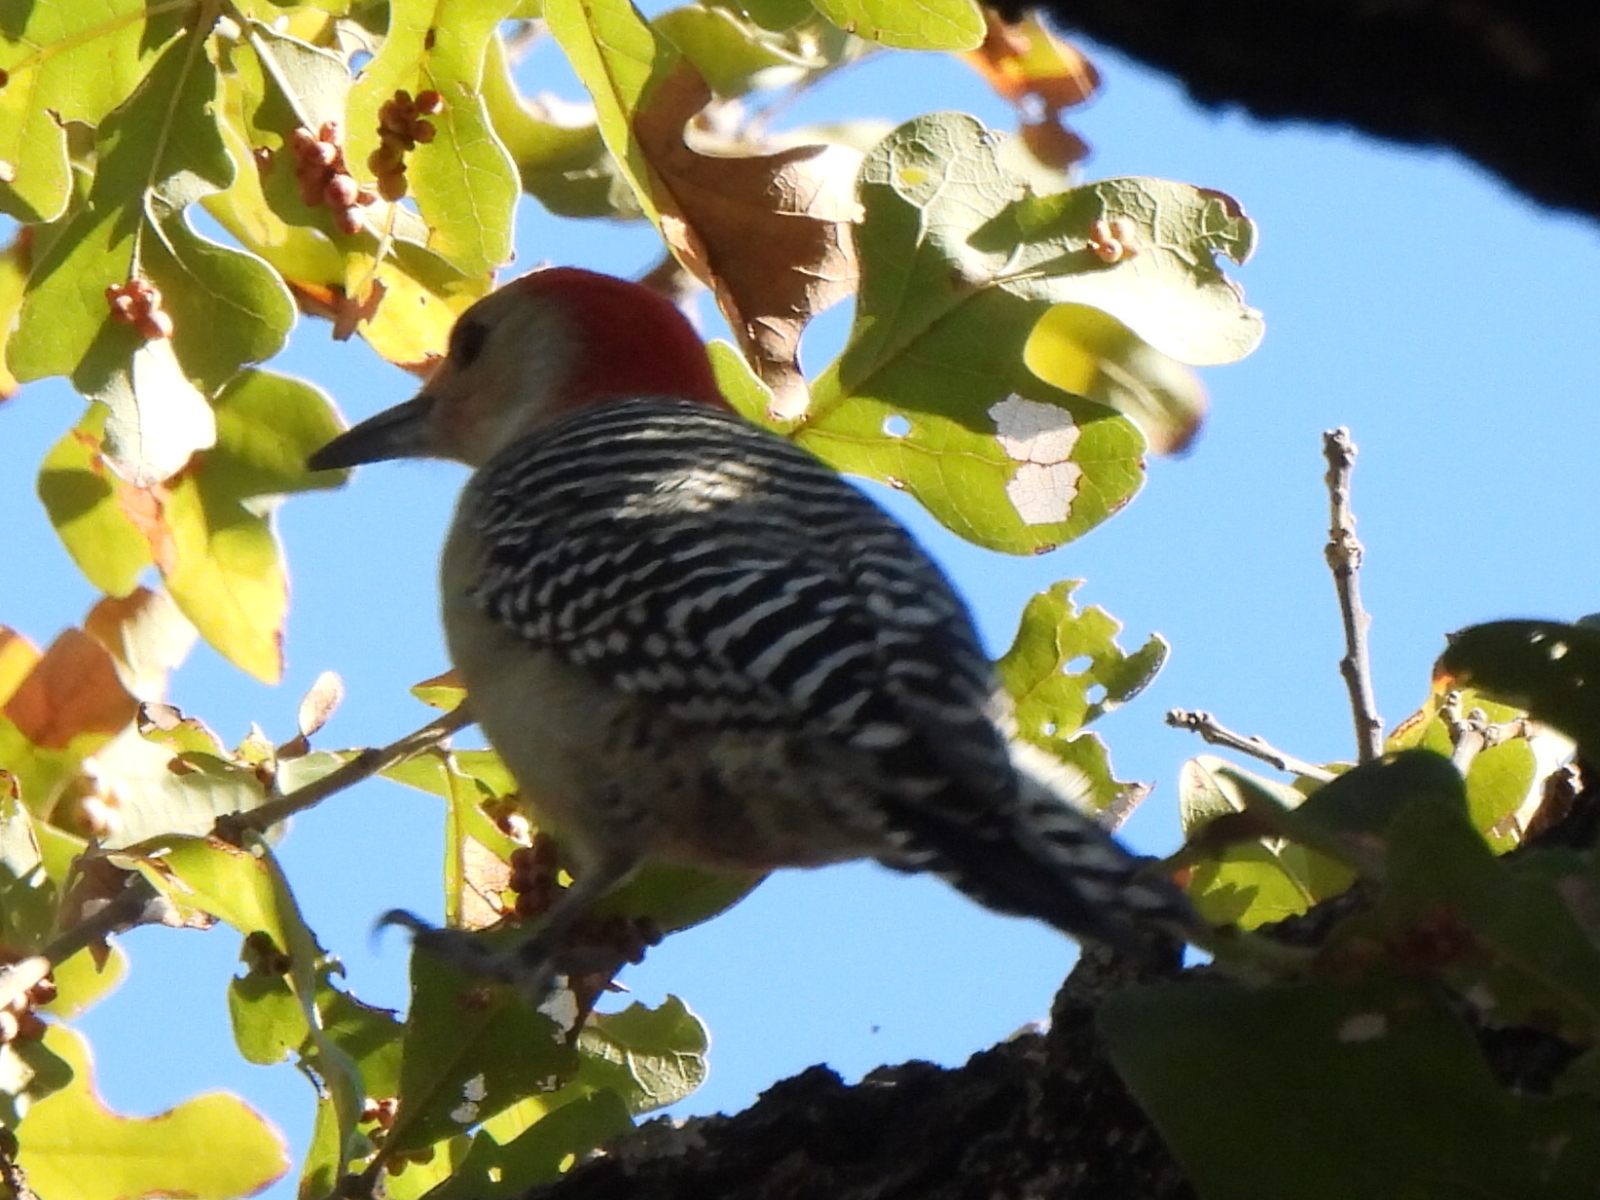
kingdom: Animalia
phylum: Chordata
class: Aves
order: Piciformes
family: Picidae
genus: Melanerpes
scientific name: Melanerpes carolinus
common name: Red-bellied woodpecker
